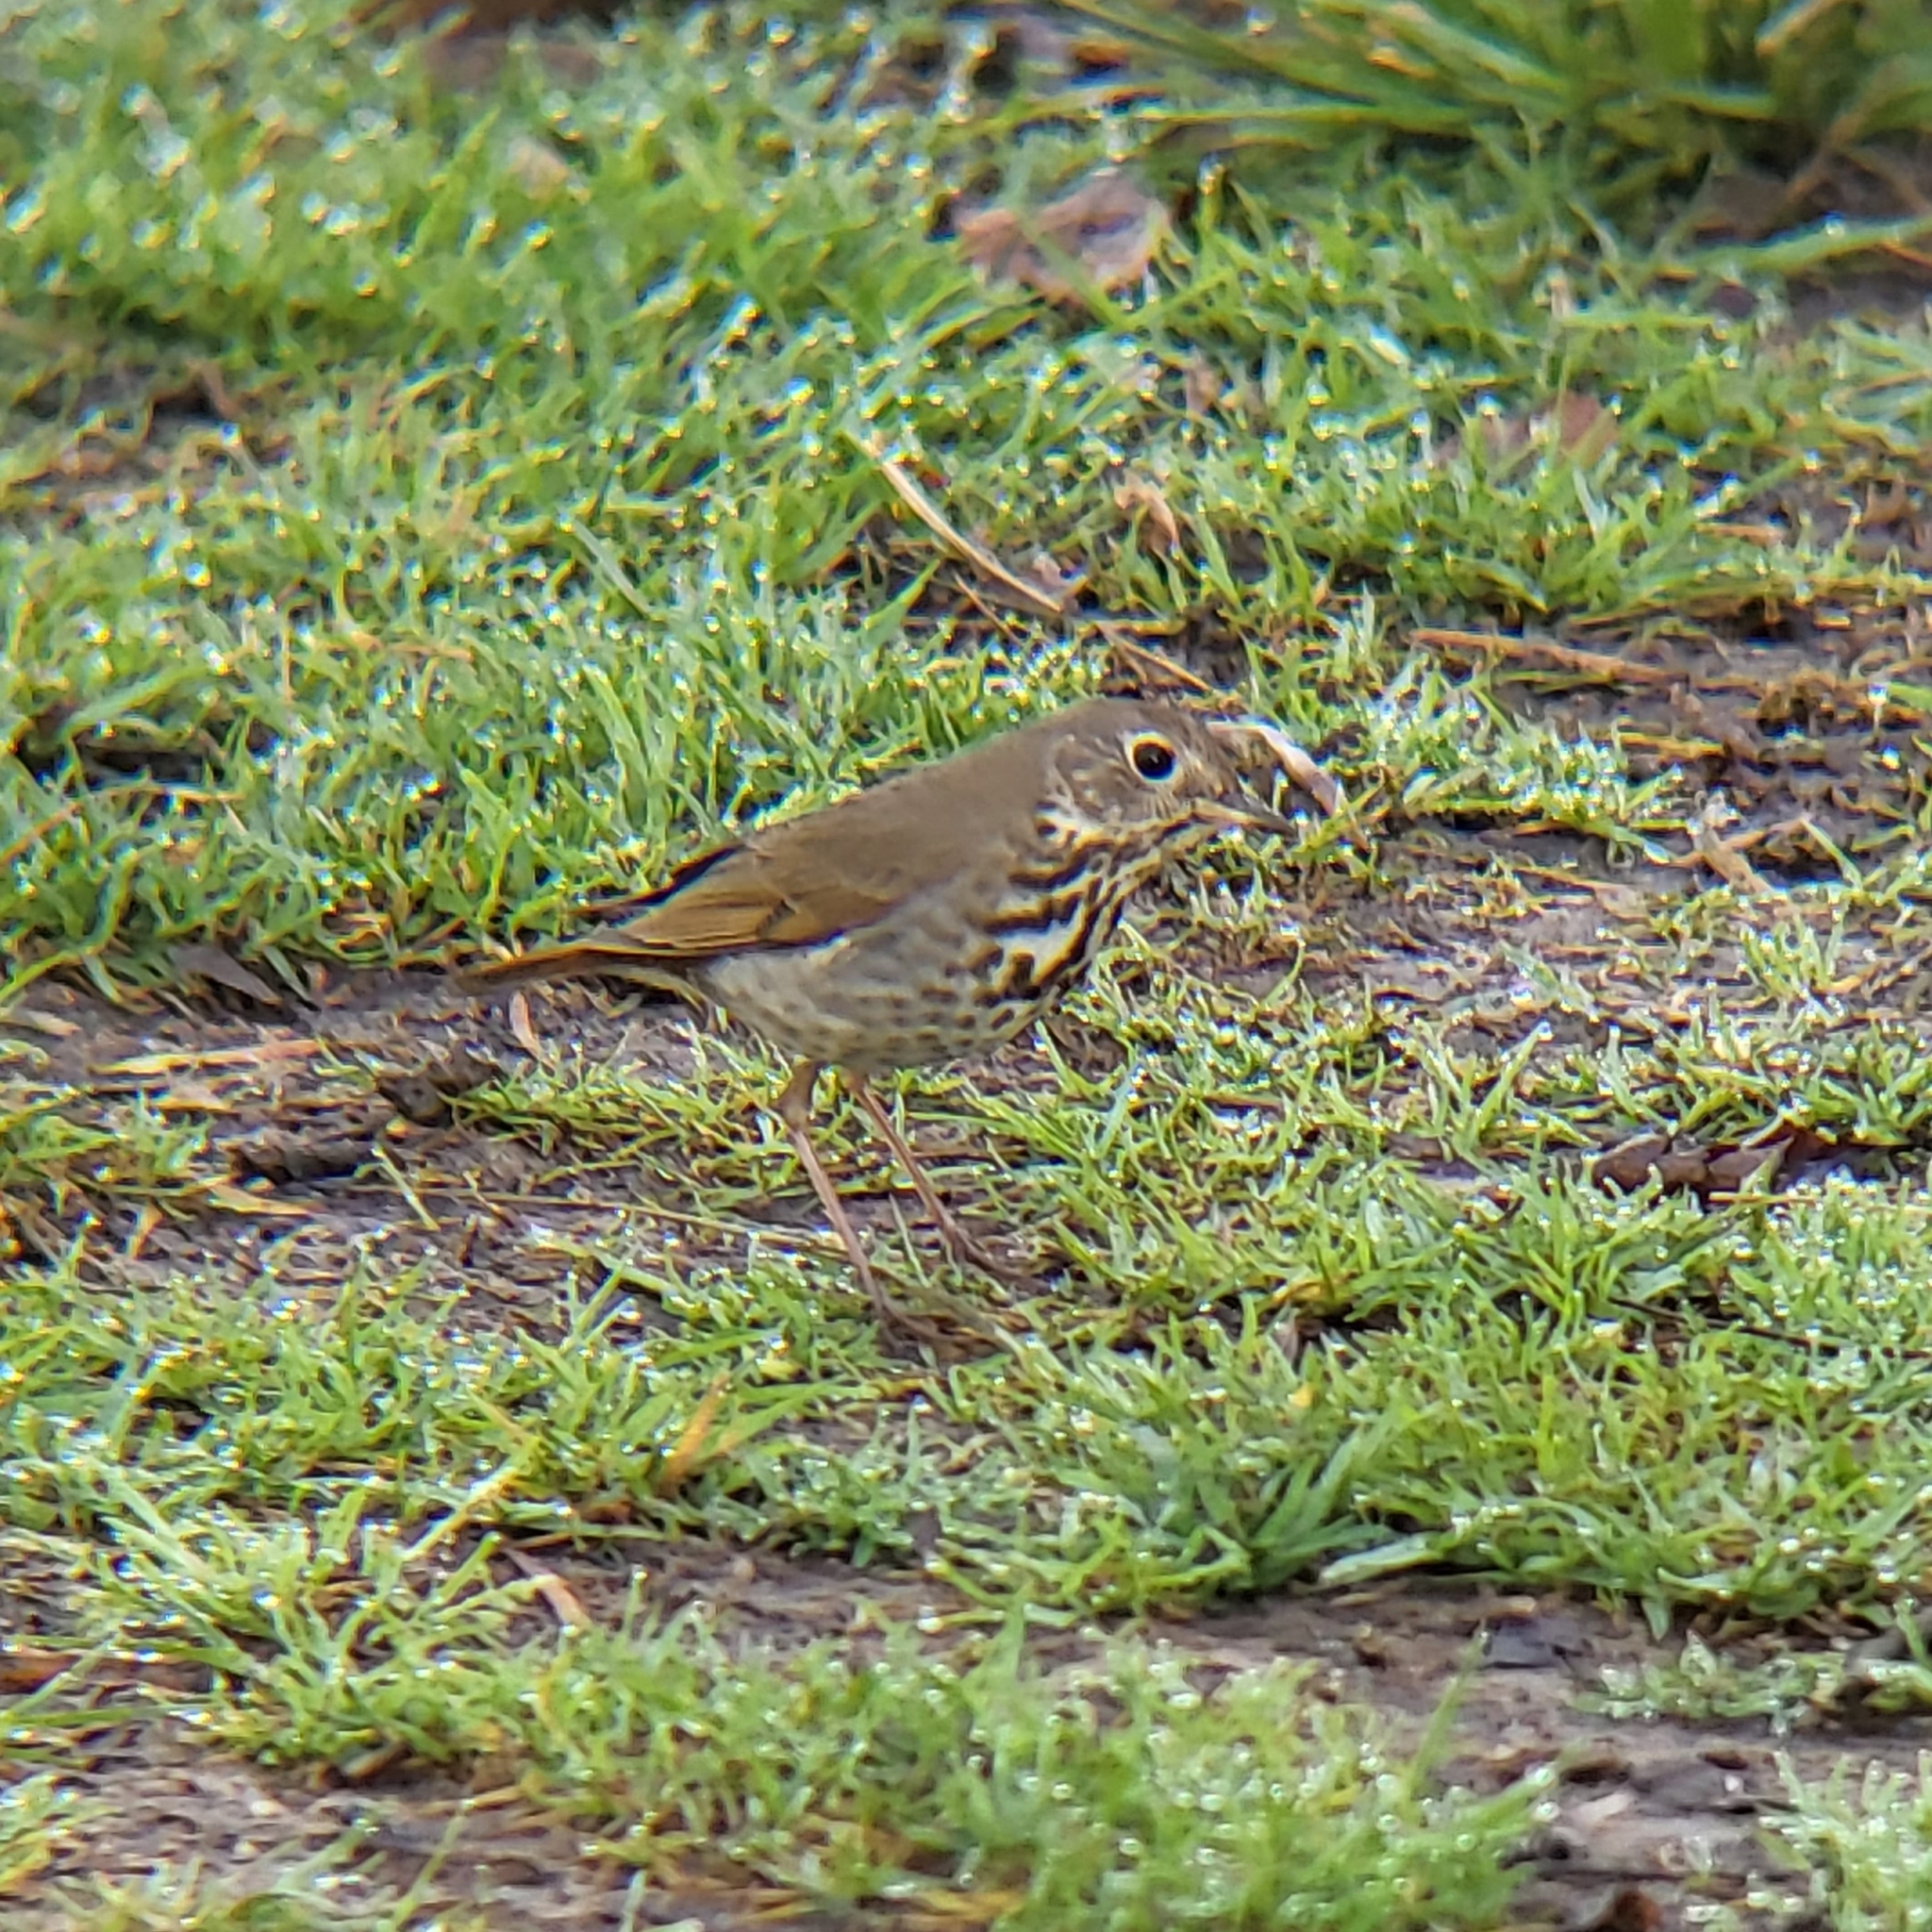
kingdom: Animalia
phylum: Chordata
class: Aves
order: Passeriformes
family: Turdidae
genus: Catharus
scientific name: Catharus guttatus
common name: Hermit thrush
